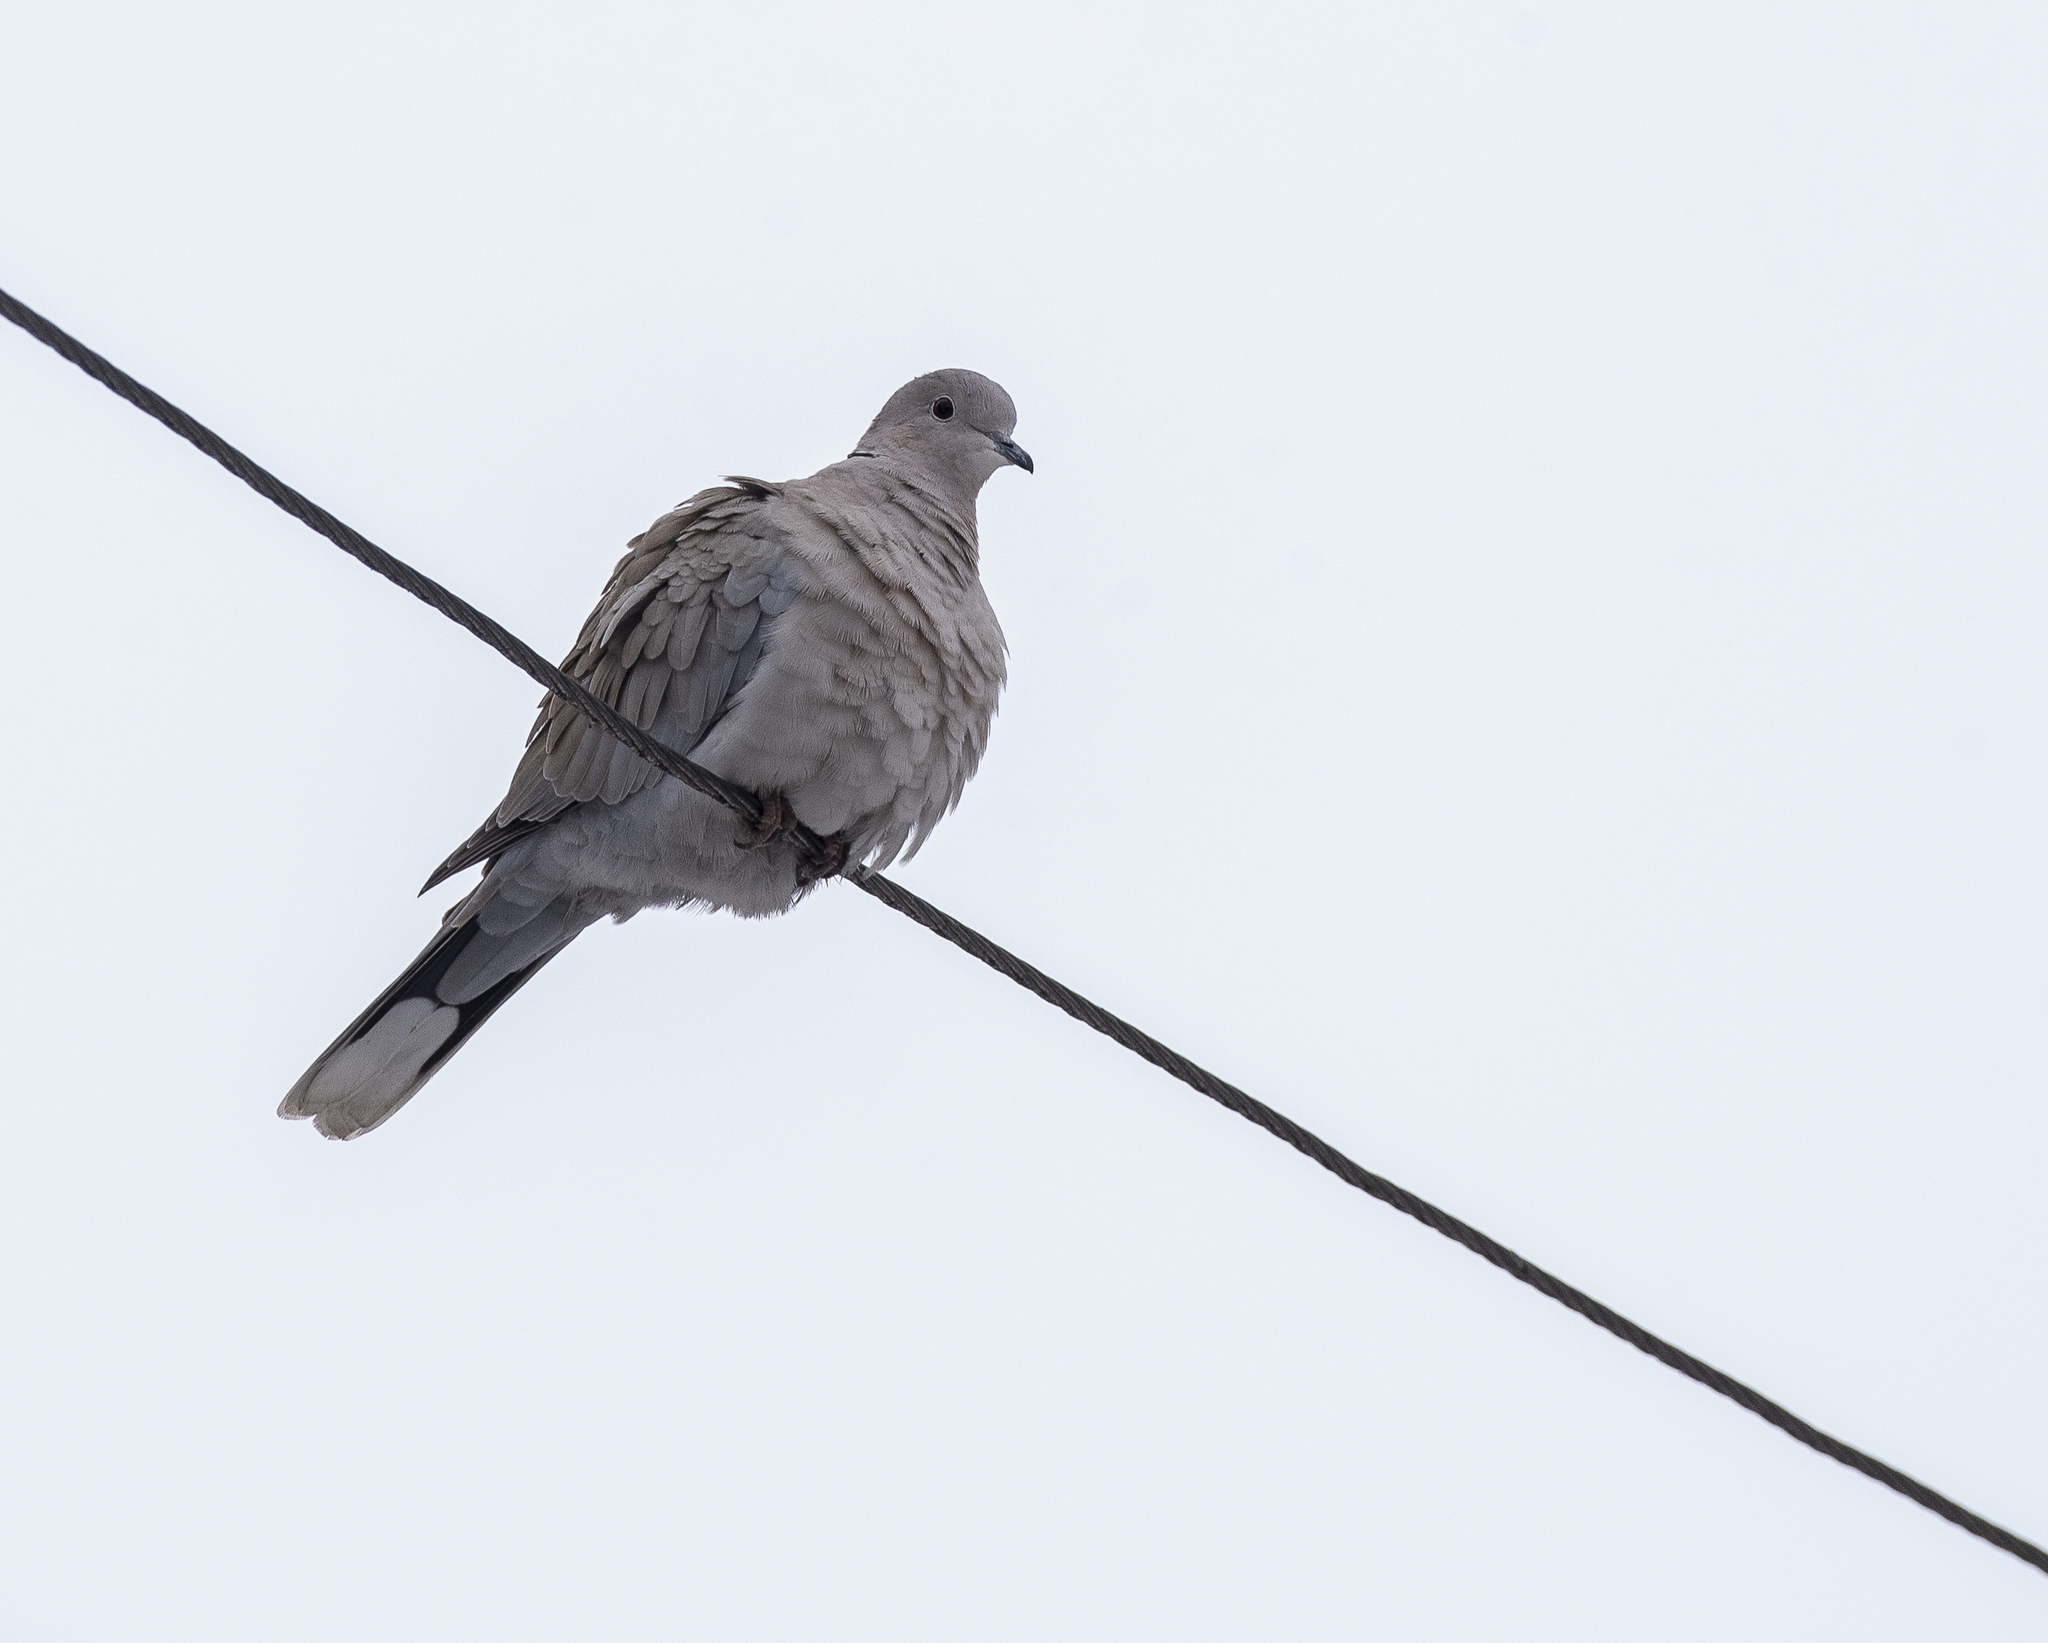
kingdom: Animalia
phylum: Chordata
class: Aves
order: Columbiformes
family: Columbidae
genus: Streptopelia
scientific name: Streptopelia decaocto
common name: Eurasian collared dove
